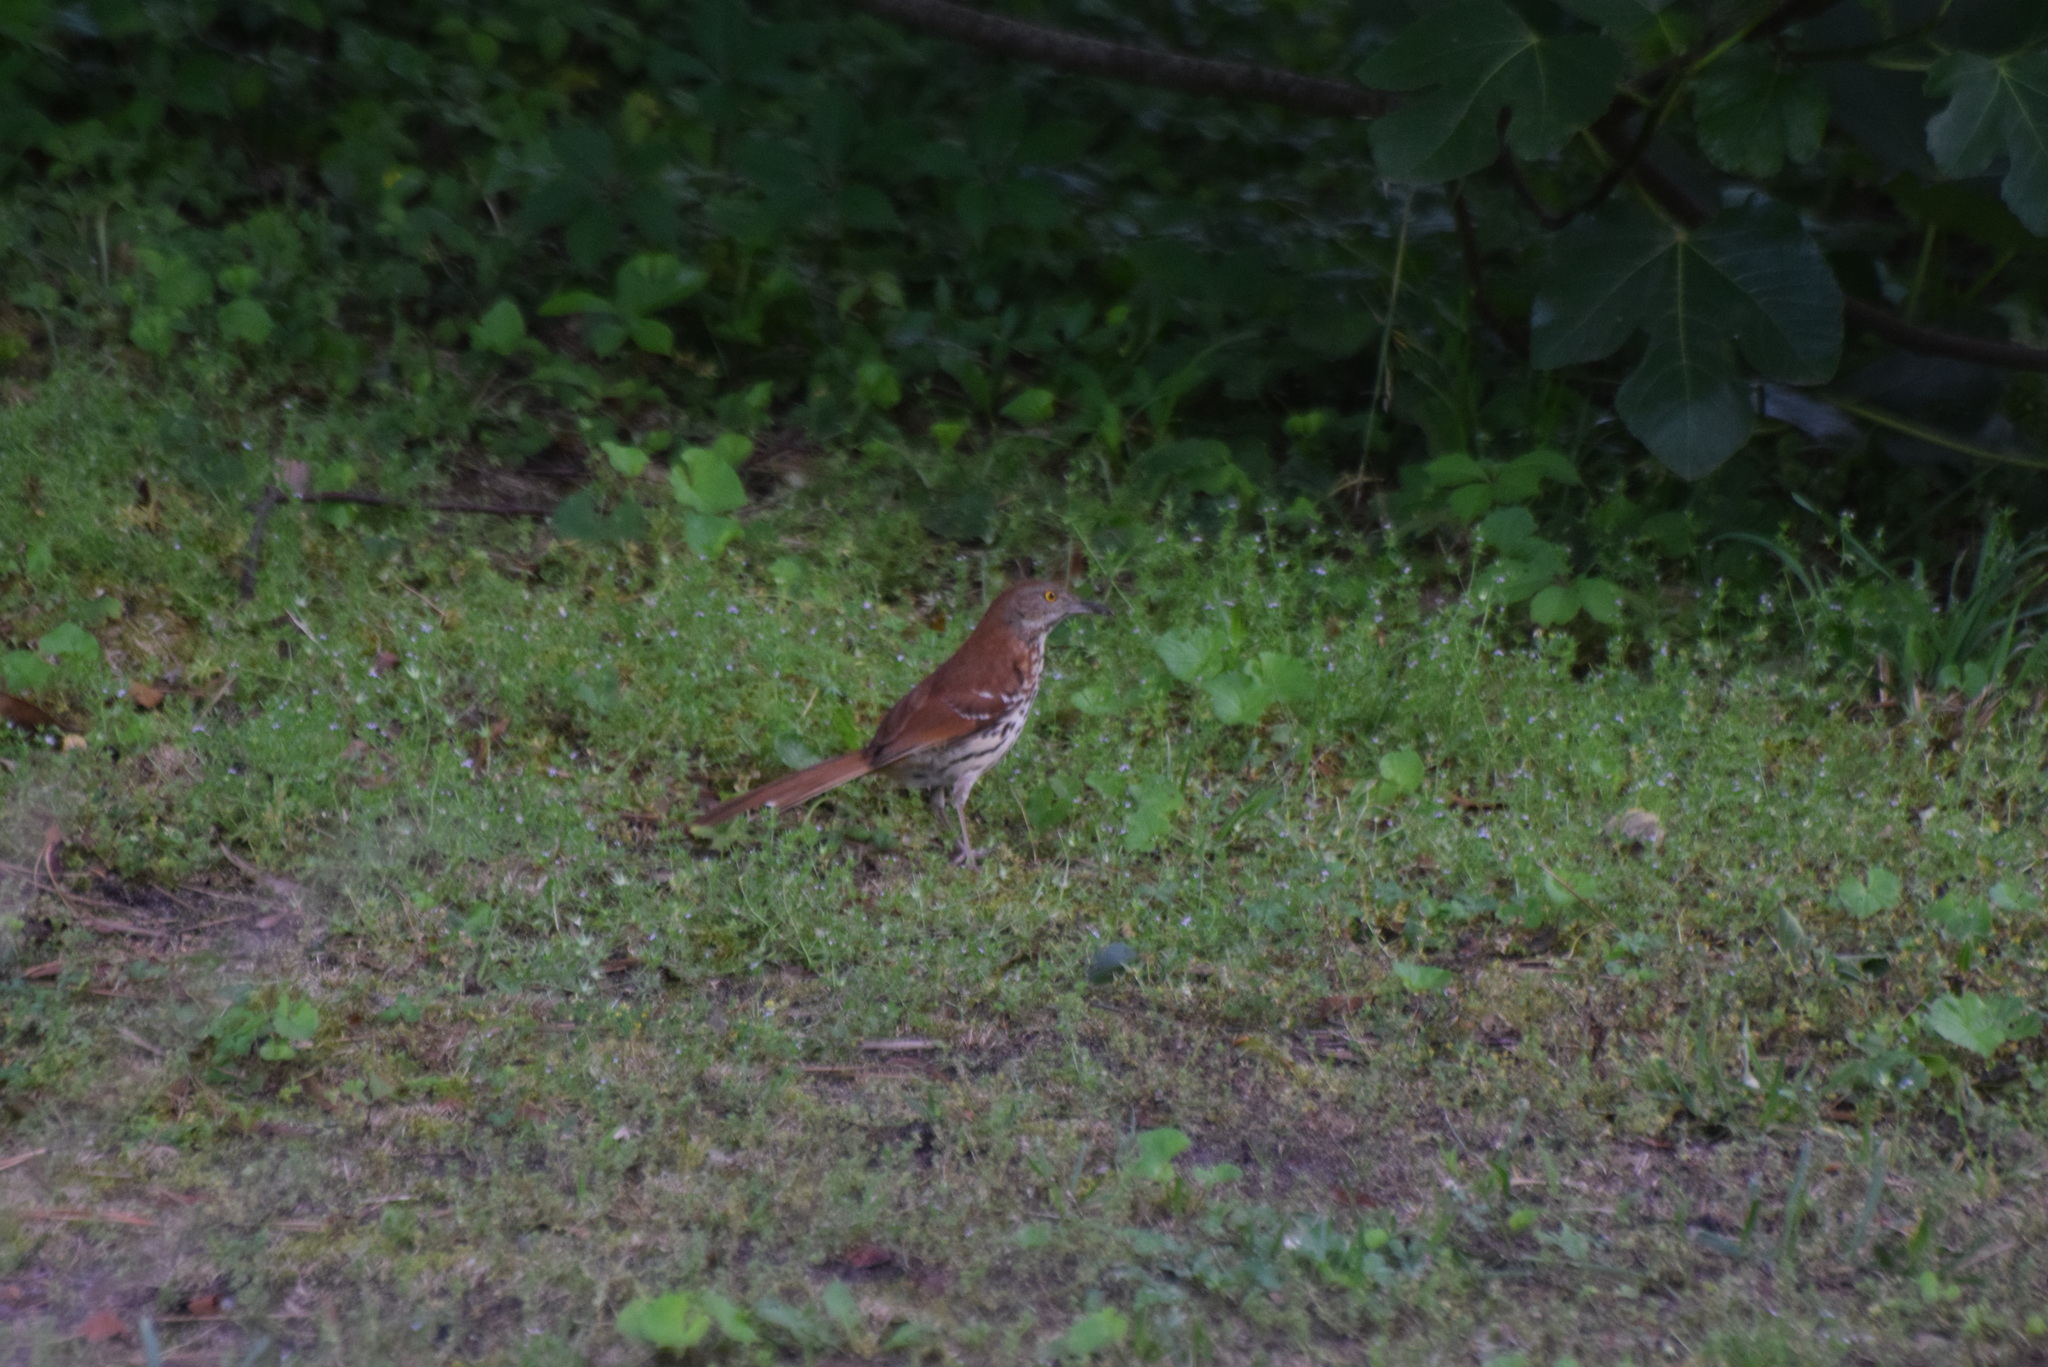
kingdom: Animalia
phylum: Chordata
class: Aves
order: Passeriformes
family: Mimidae
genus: Toxostoma
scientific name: Toxostoma rufum
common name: Brown thrasher
